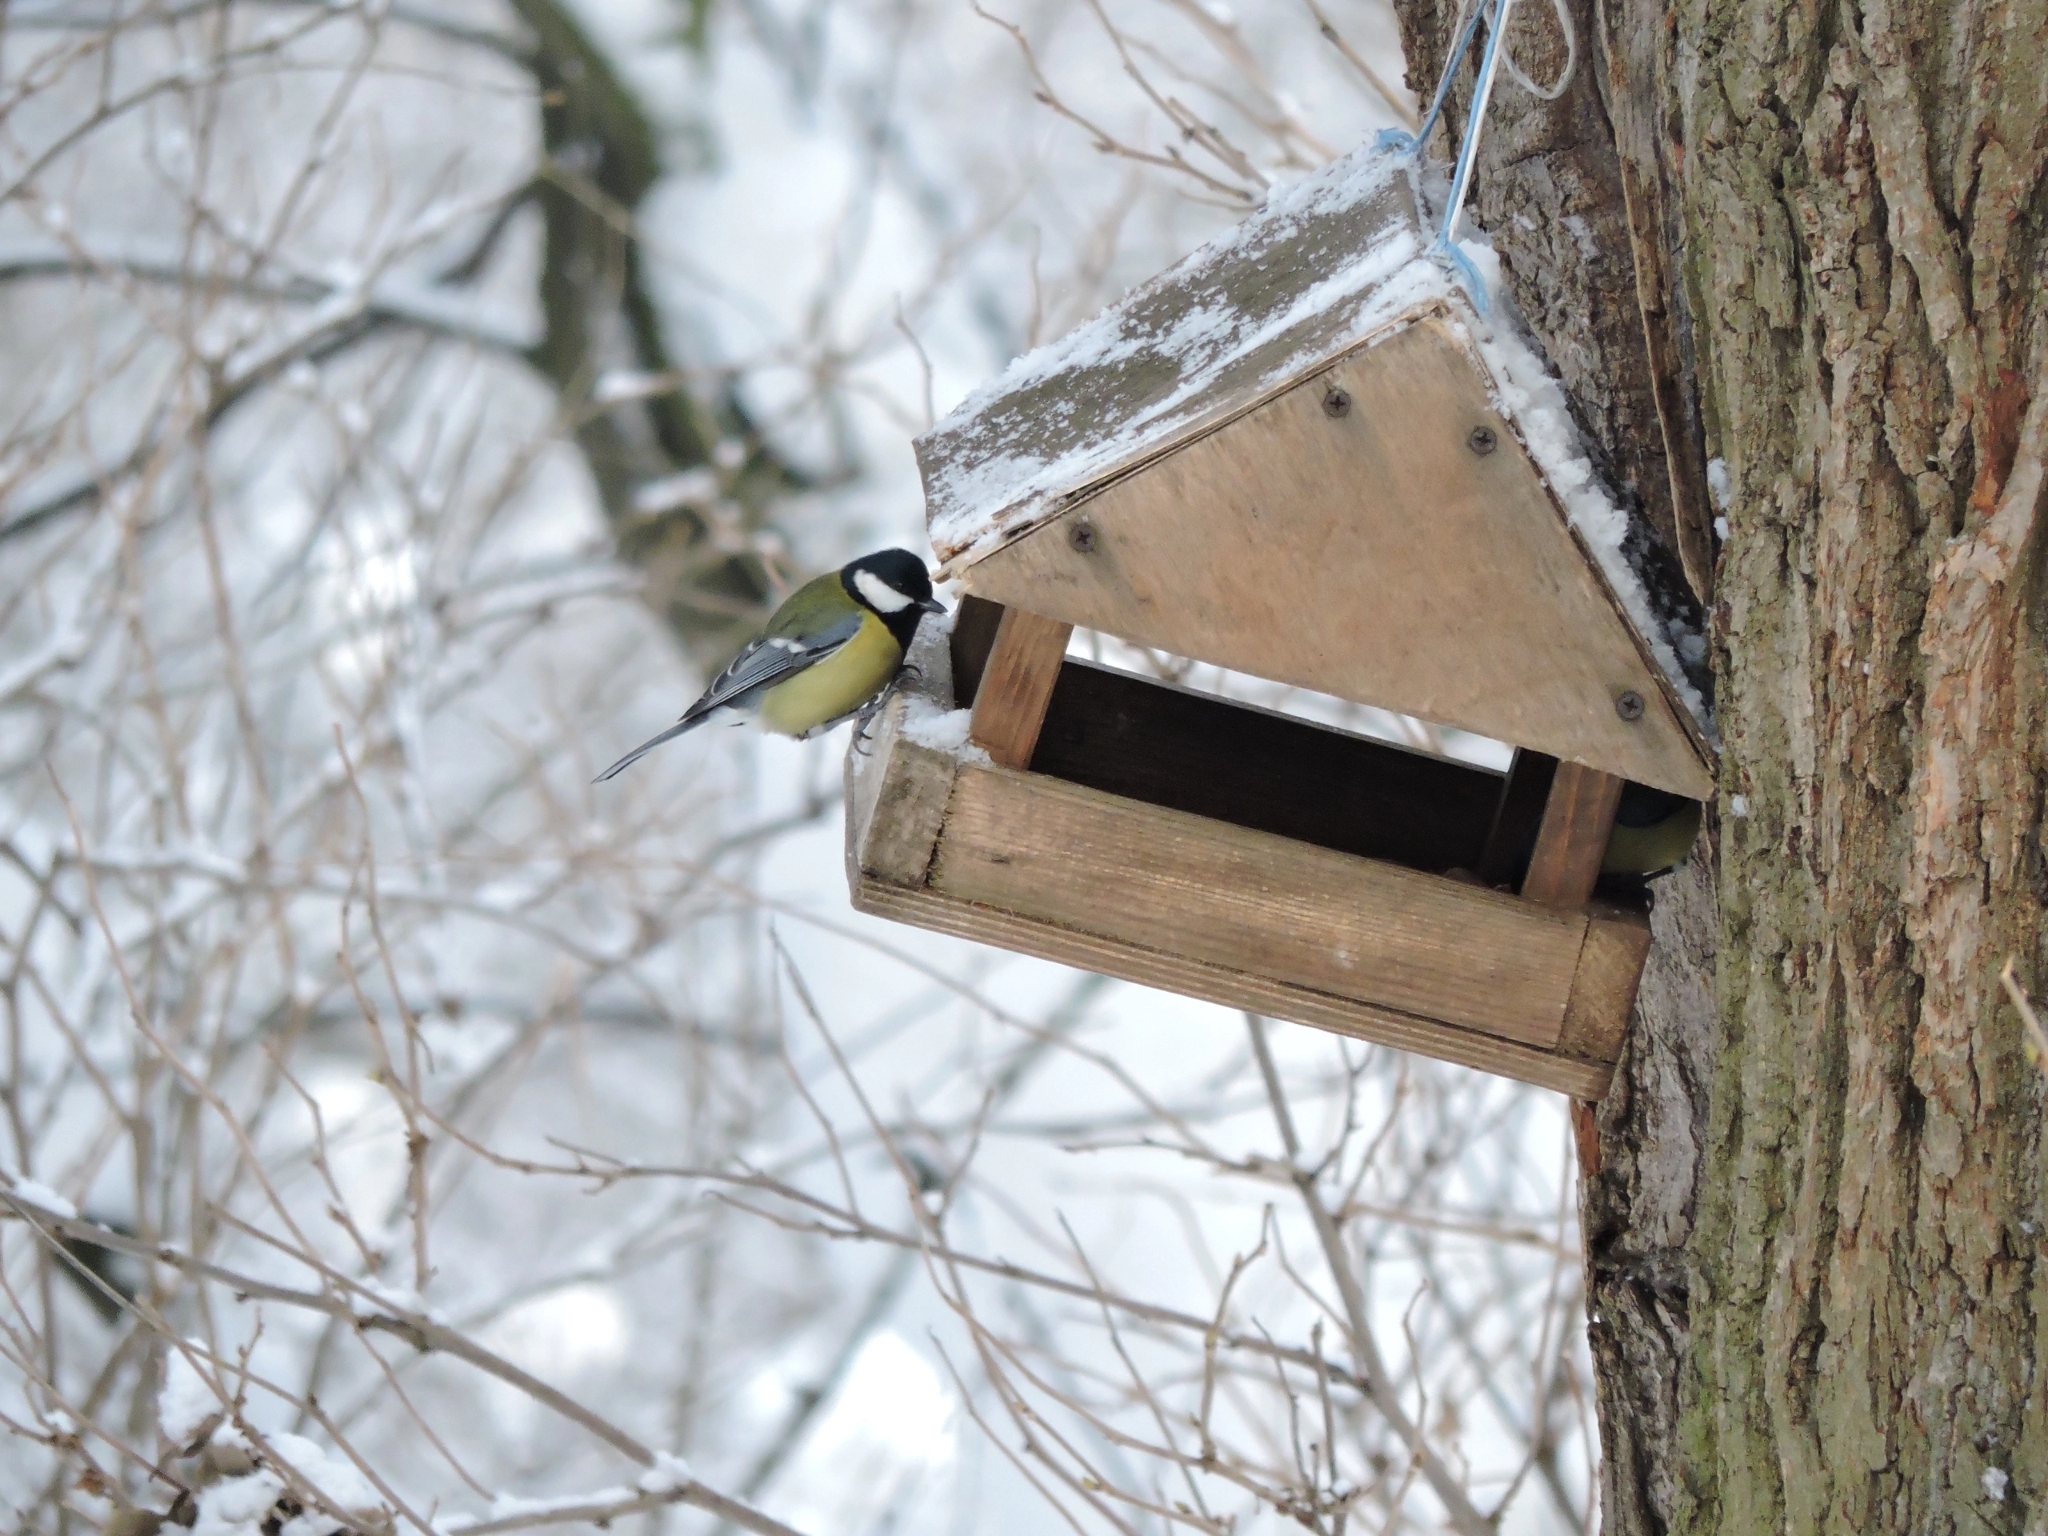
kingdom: Animalia
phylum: Chordata
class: Aves
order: Passeriformes
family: Paridae
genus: Parus
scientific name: Parus major
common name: Great tit
